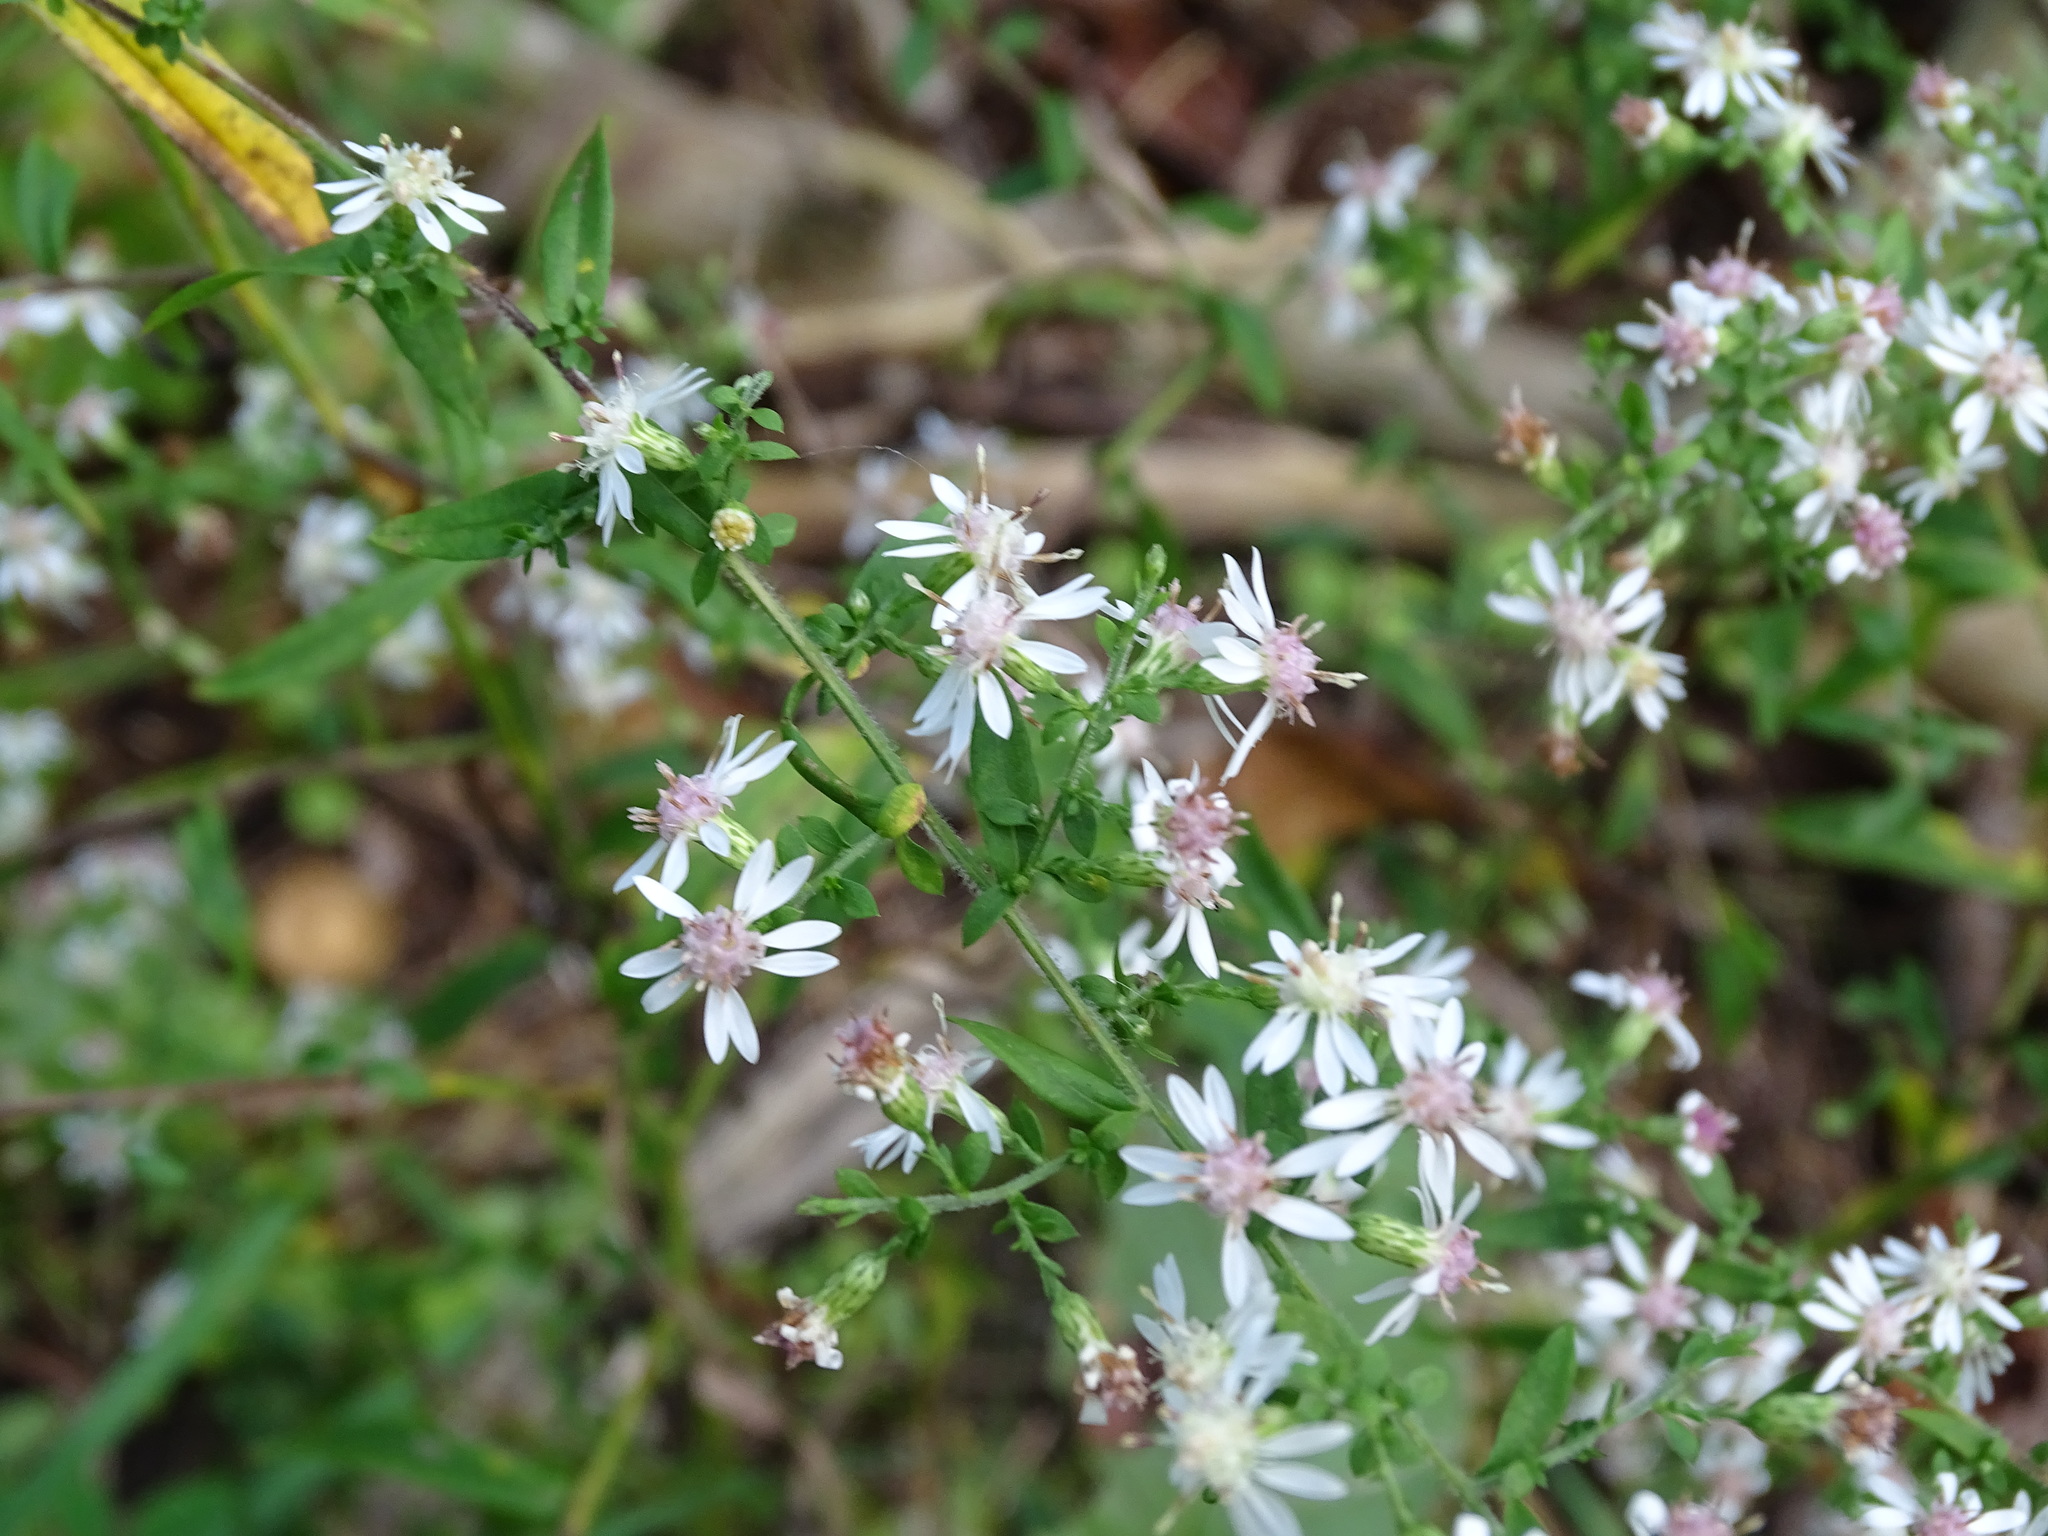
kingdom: Plantae
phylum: Tracheophyta
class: Magnoliopsida
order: Asterales
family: Asteraceae
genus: Symphyotrichum
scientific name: Symphyotrichum lateriflorum
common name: Calico aster
